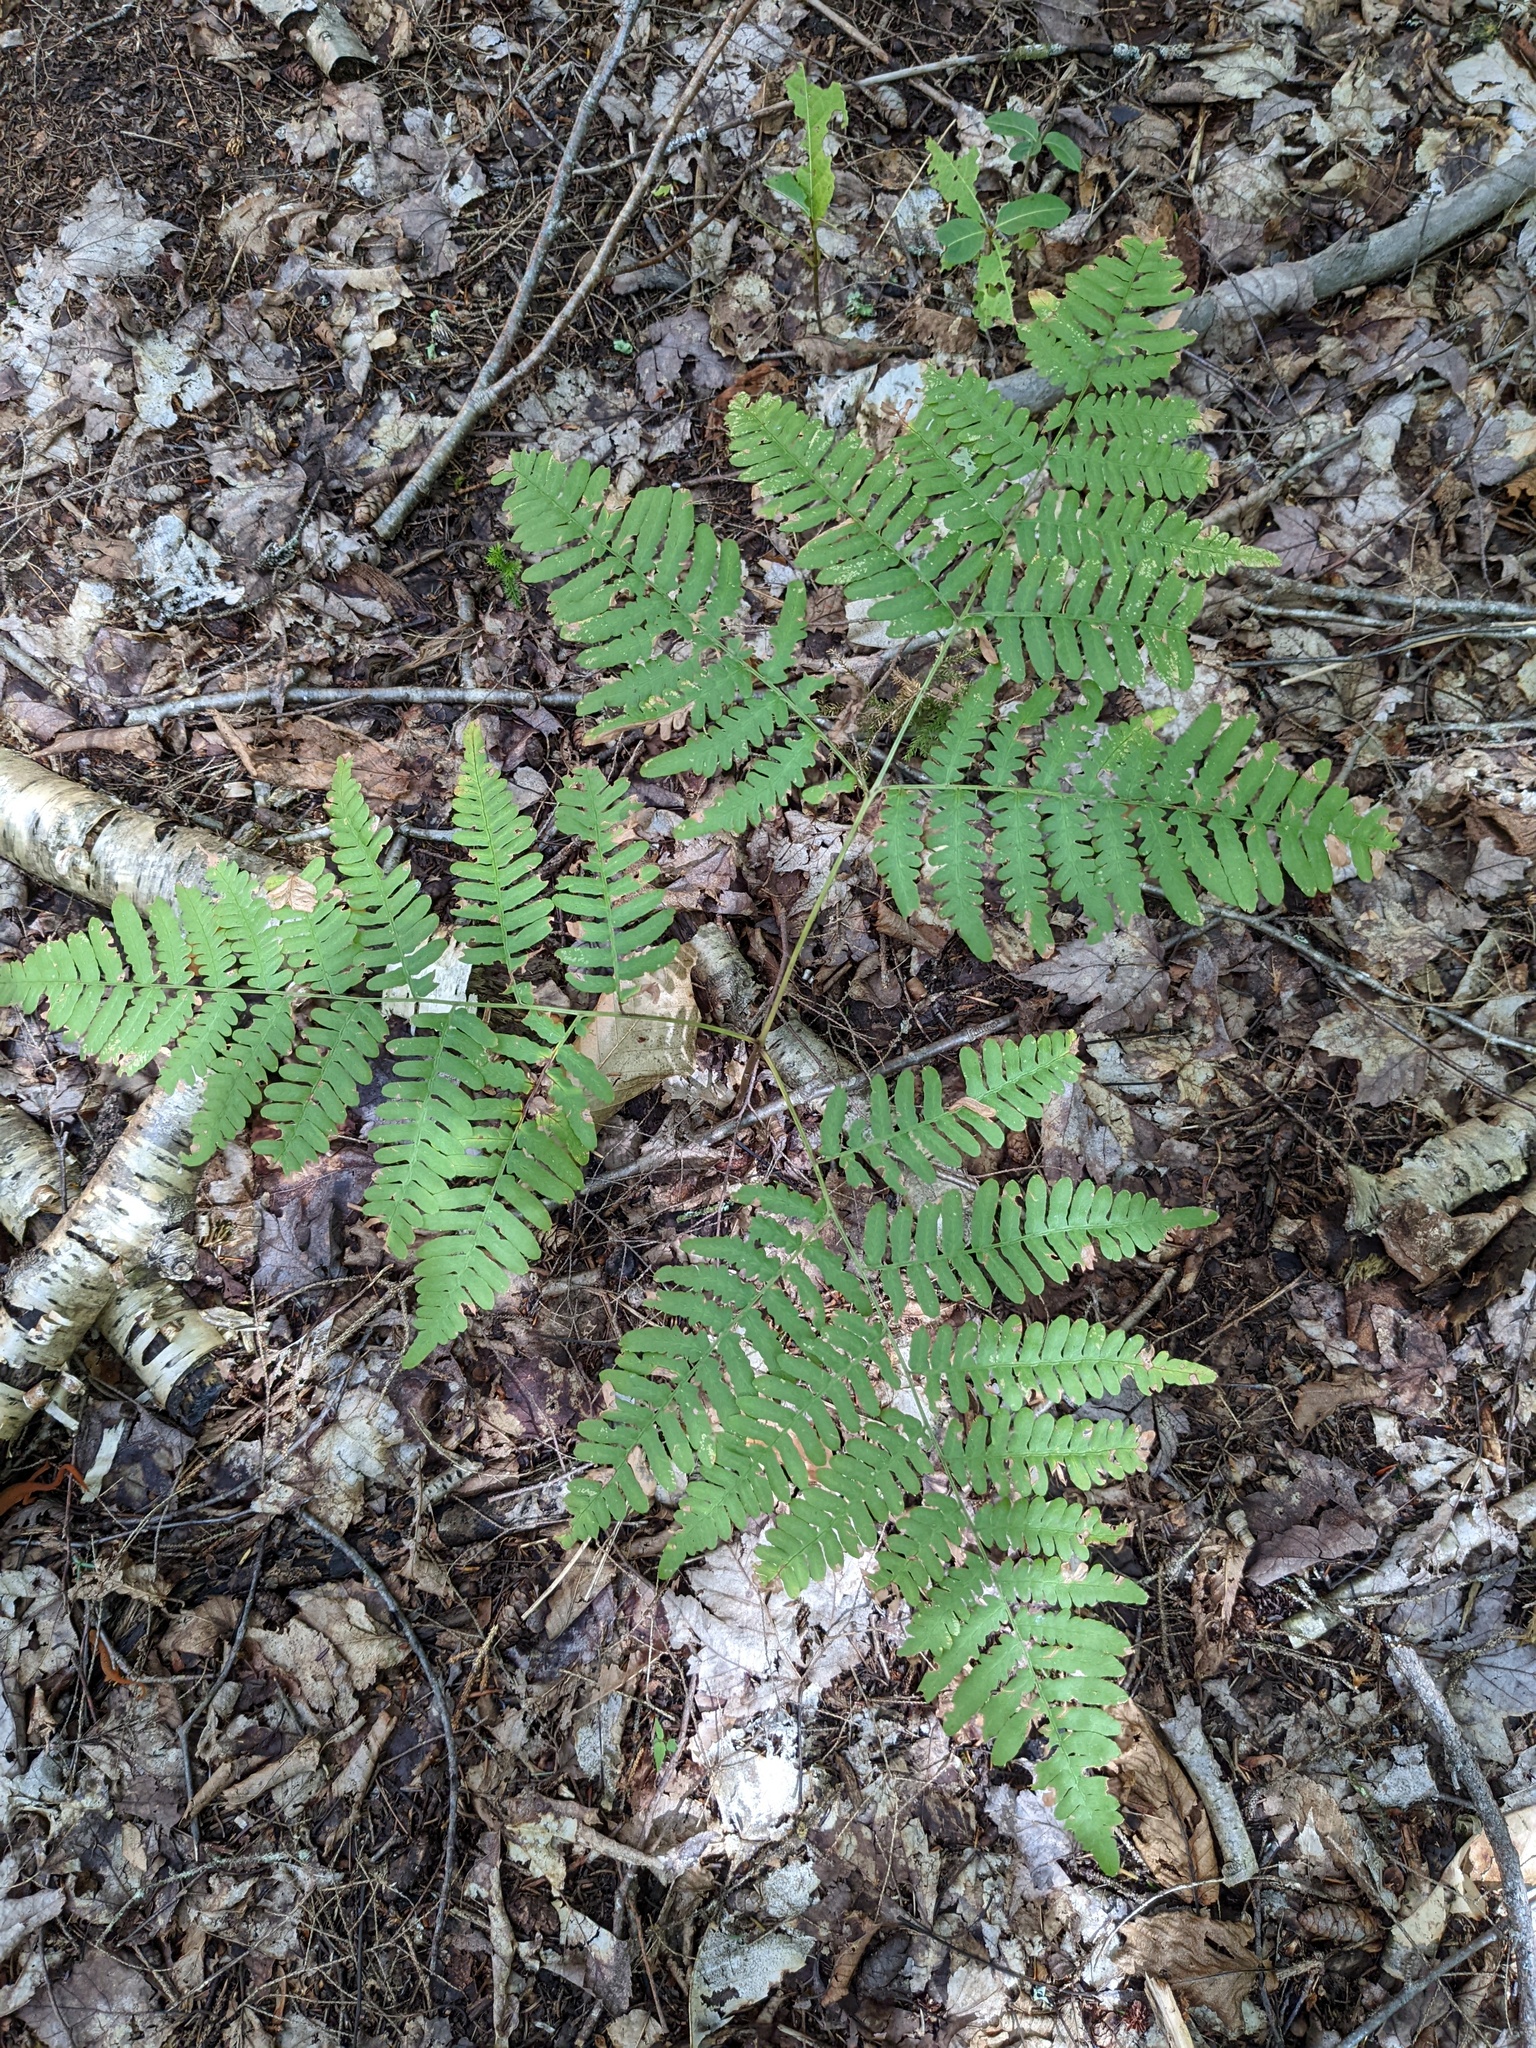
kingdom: Plantae
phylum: Tracheophyta
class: Polypodiopsida
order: Polypodiales
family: Dennstaedtiaceae
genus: Pteridium
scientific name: Pteridium aquilinum
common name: Bracken
